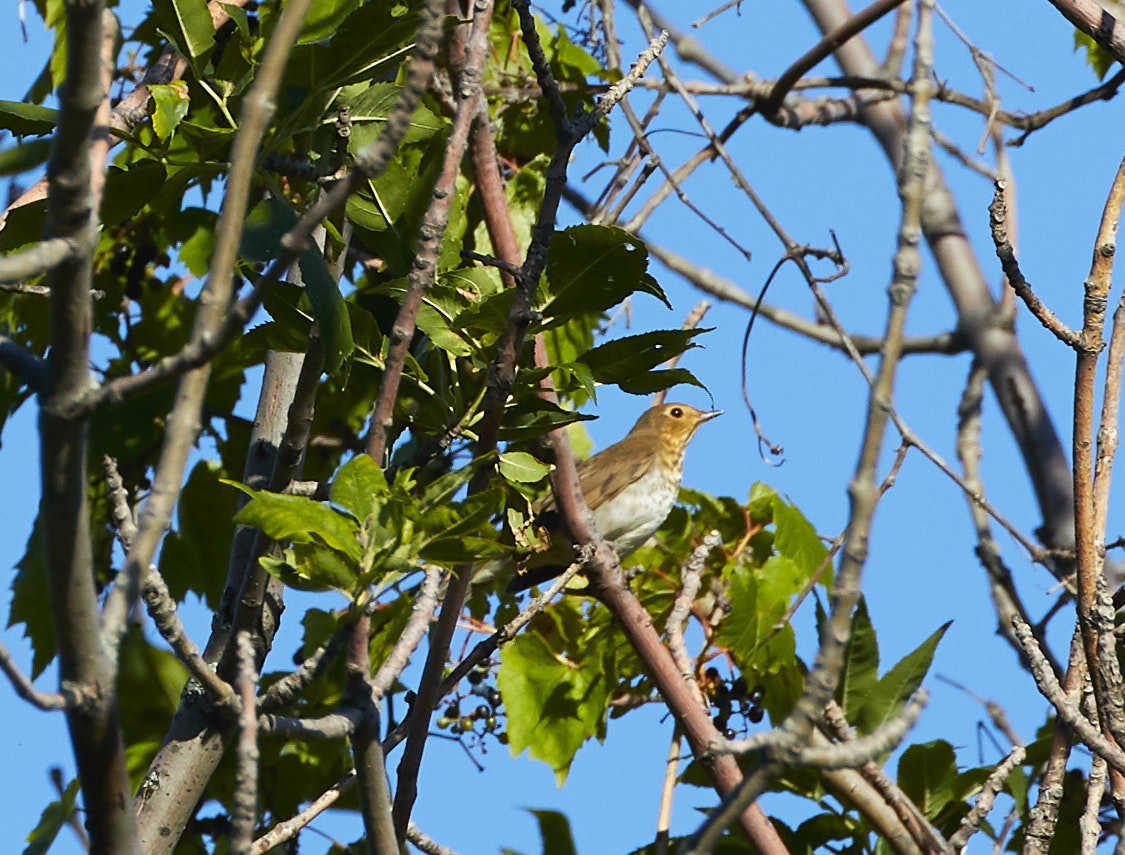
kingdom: Animalia
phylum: Chordata
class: Aves
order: Passeriformes
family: Turdidae
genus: Catharus
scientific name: Catharus ustulatus
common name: Swainson's thrush
